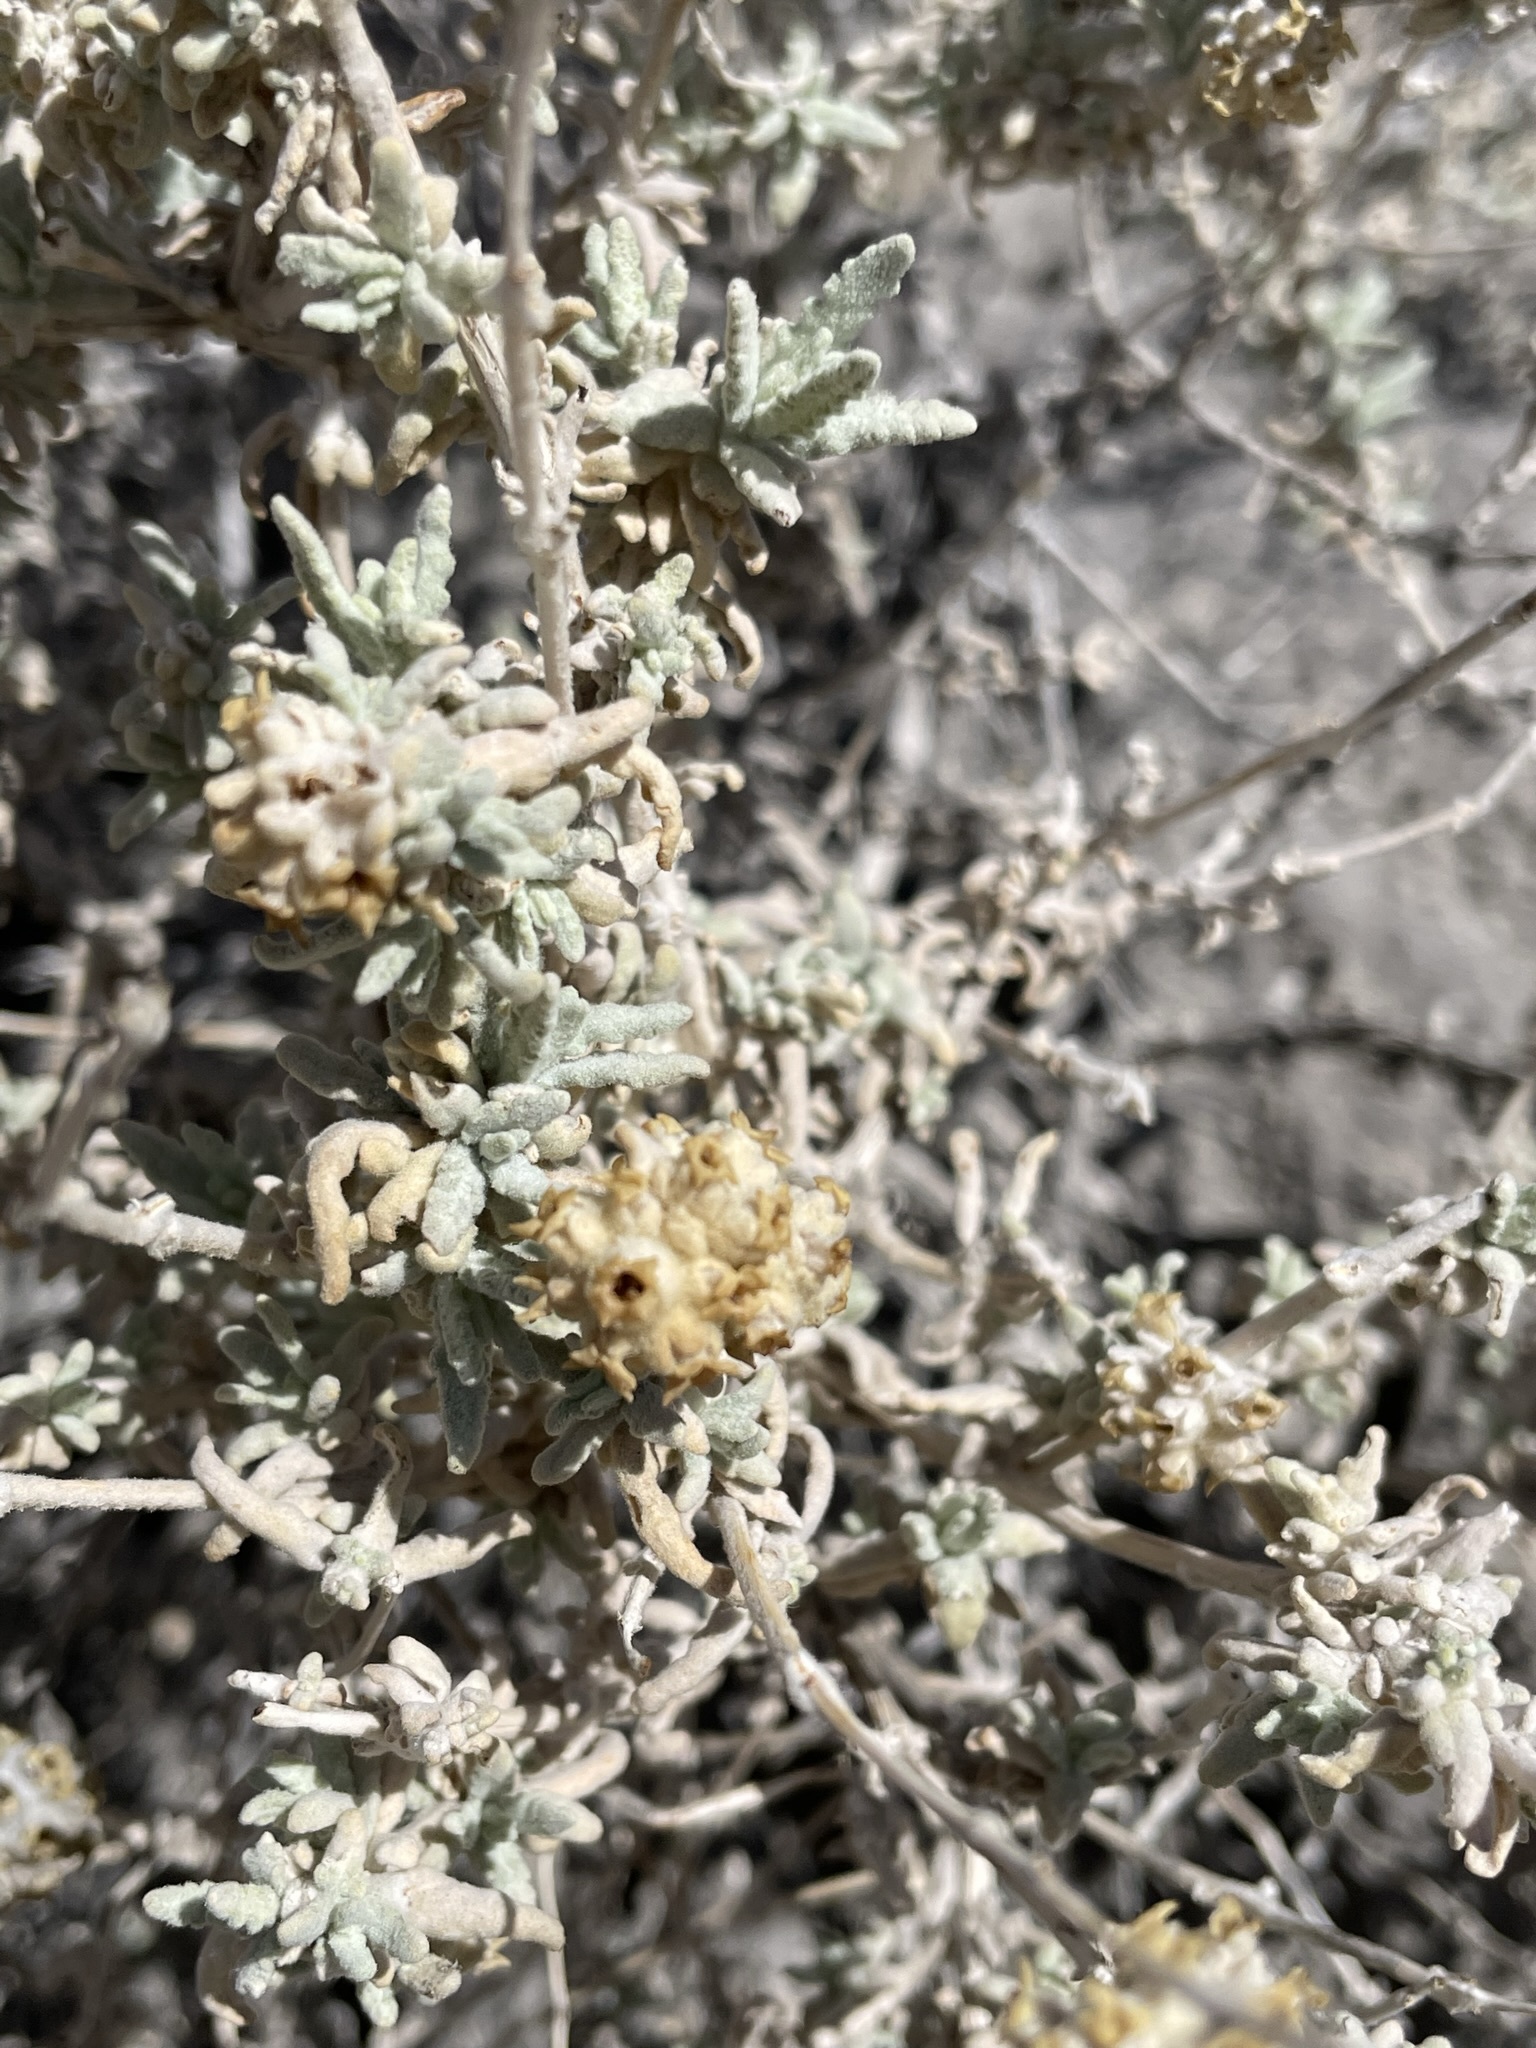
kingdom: Plantae
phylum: Tracheophyta
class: Magnoliopsida
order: Lamiales
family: Scrophulariaceae
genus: Buddleja
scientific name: Buddleja utahensis
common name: Utah butterfly-bush
